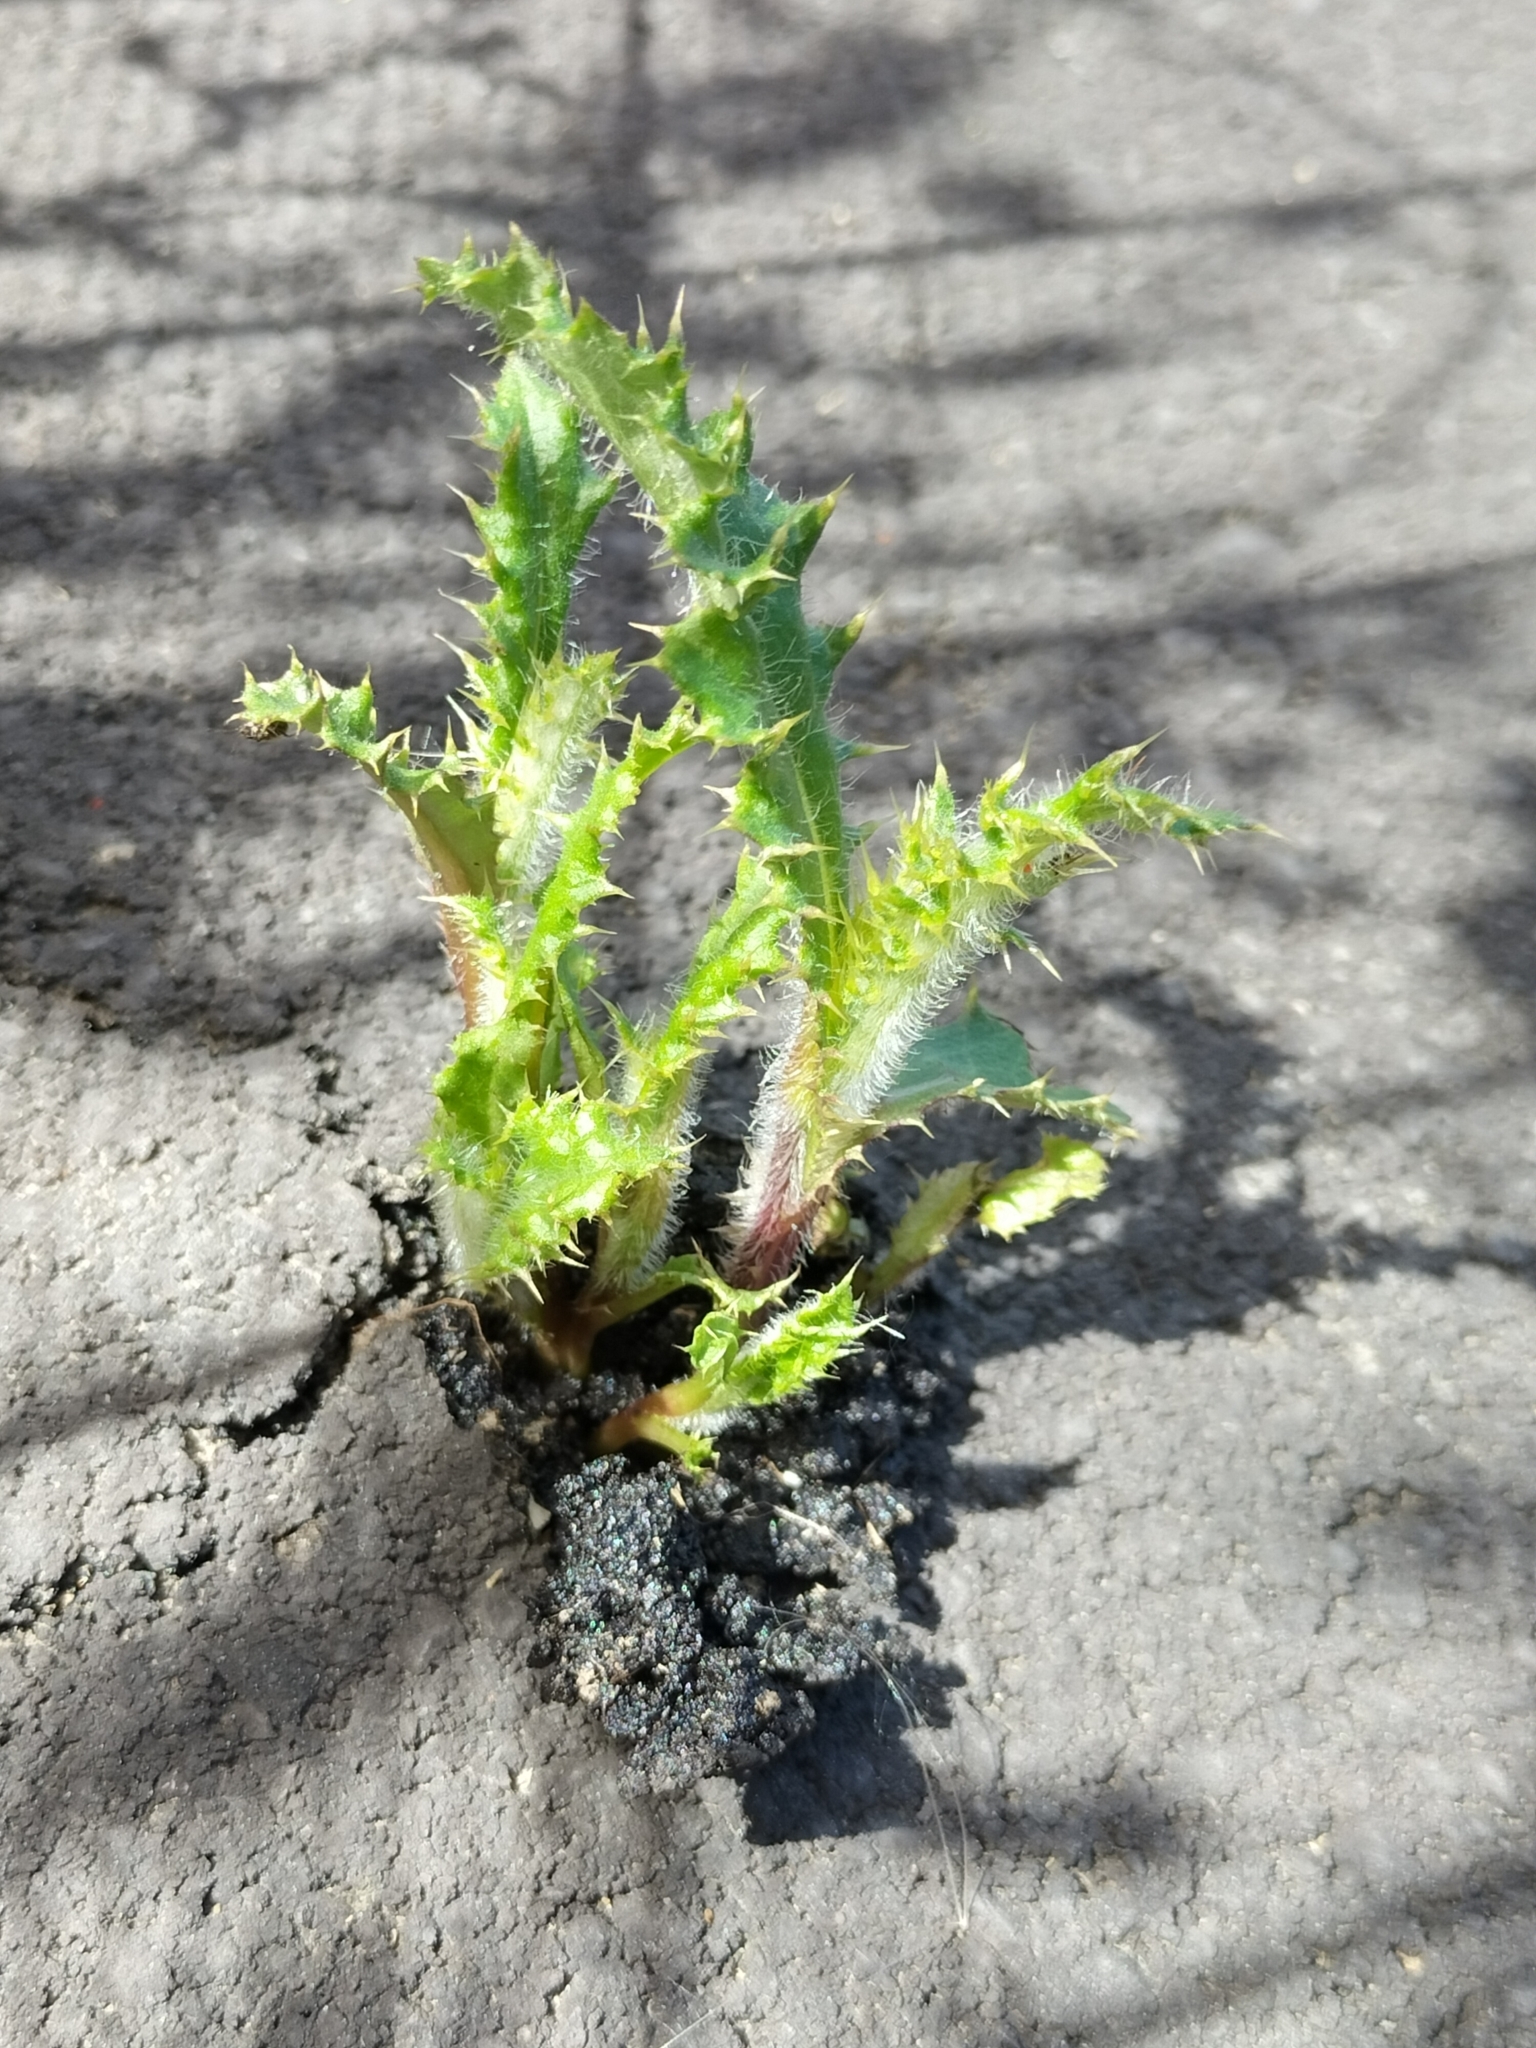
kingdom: Plantae
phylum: Tracheophyta
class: Magnoliopsida
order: Asterales
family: Asteraceae
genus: Cirsium
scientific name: Cirsium arvense
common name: Creeping thistle
